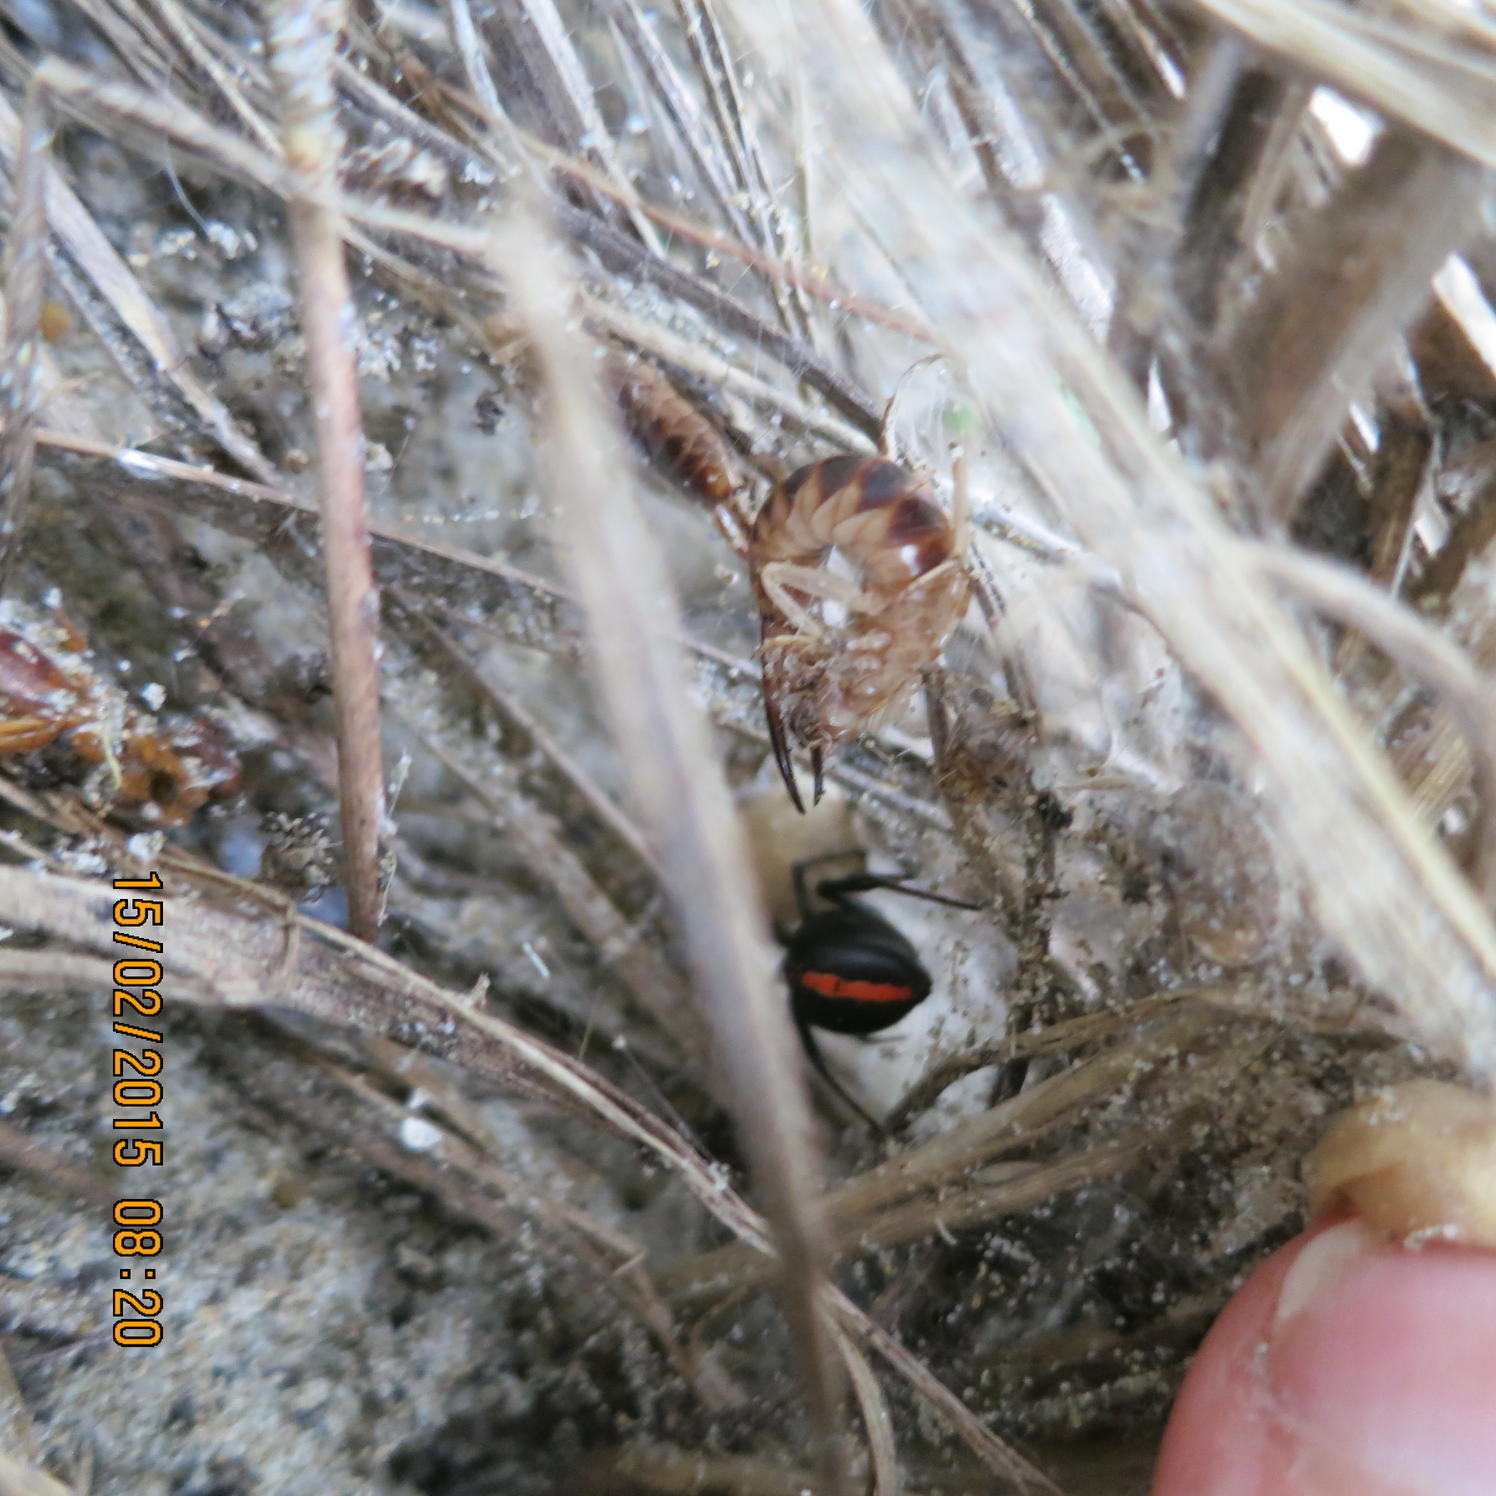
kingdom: Animalia
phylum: Arthropoda
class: Insecta
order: Dermaptera
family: Labiduridae
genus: Labidura
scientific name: Labidura riparia
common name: Striped earwig
